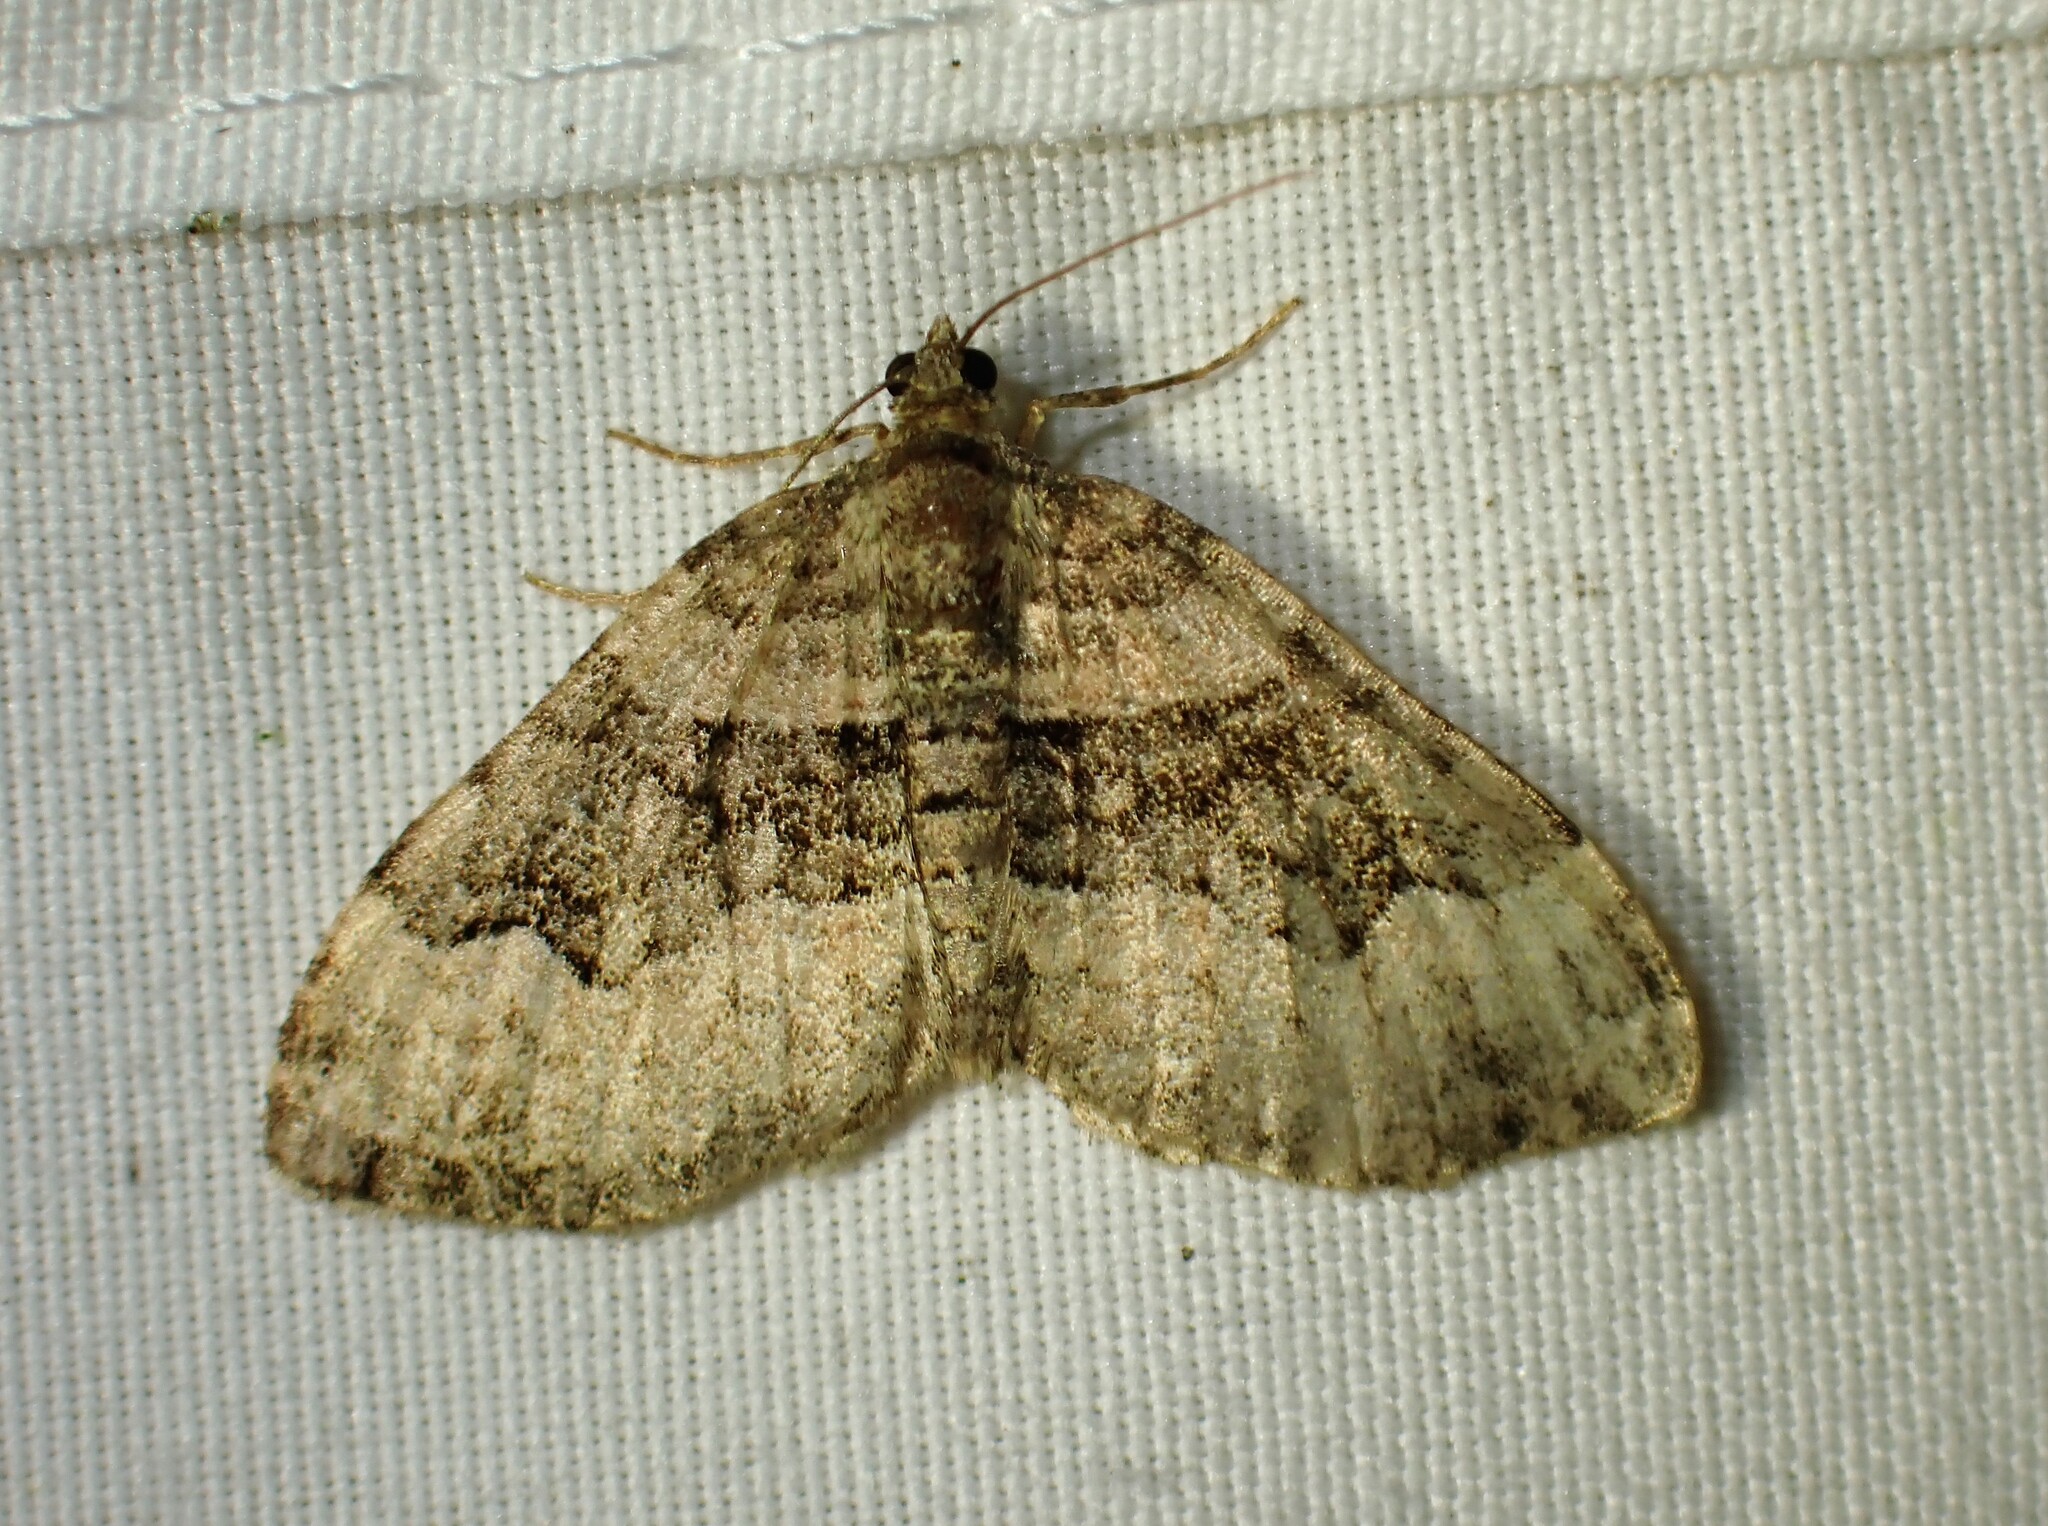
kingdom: Animalia
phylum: Arthropoda
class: Insecta
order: Lepidoptera
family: Geometridae
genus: Xanthorhoe
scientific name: Xanthorhoe lacustrata
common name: Toothed brown carpet
